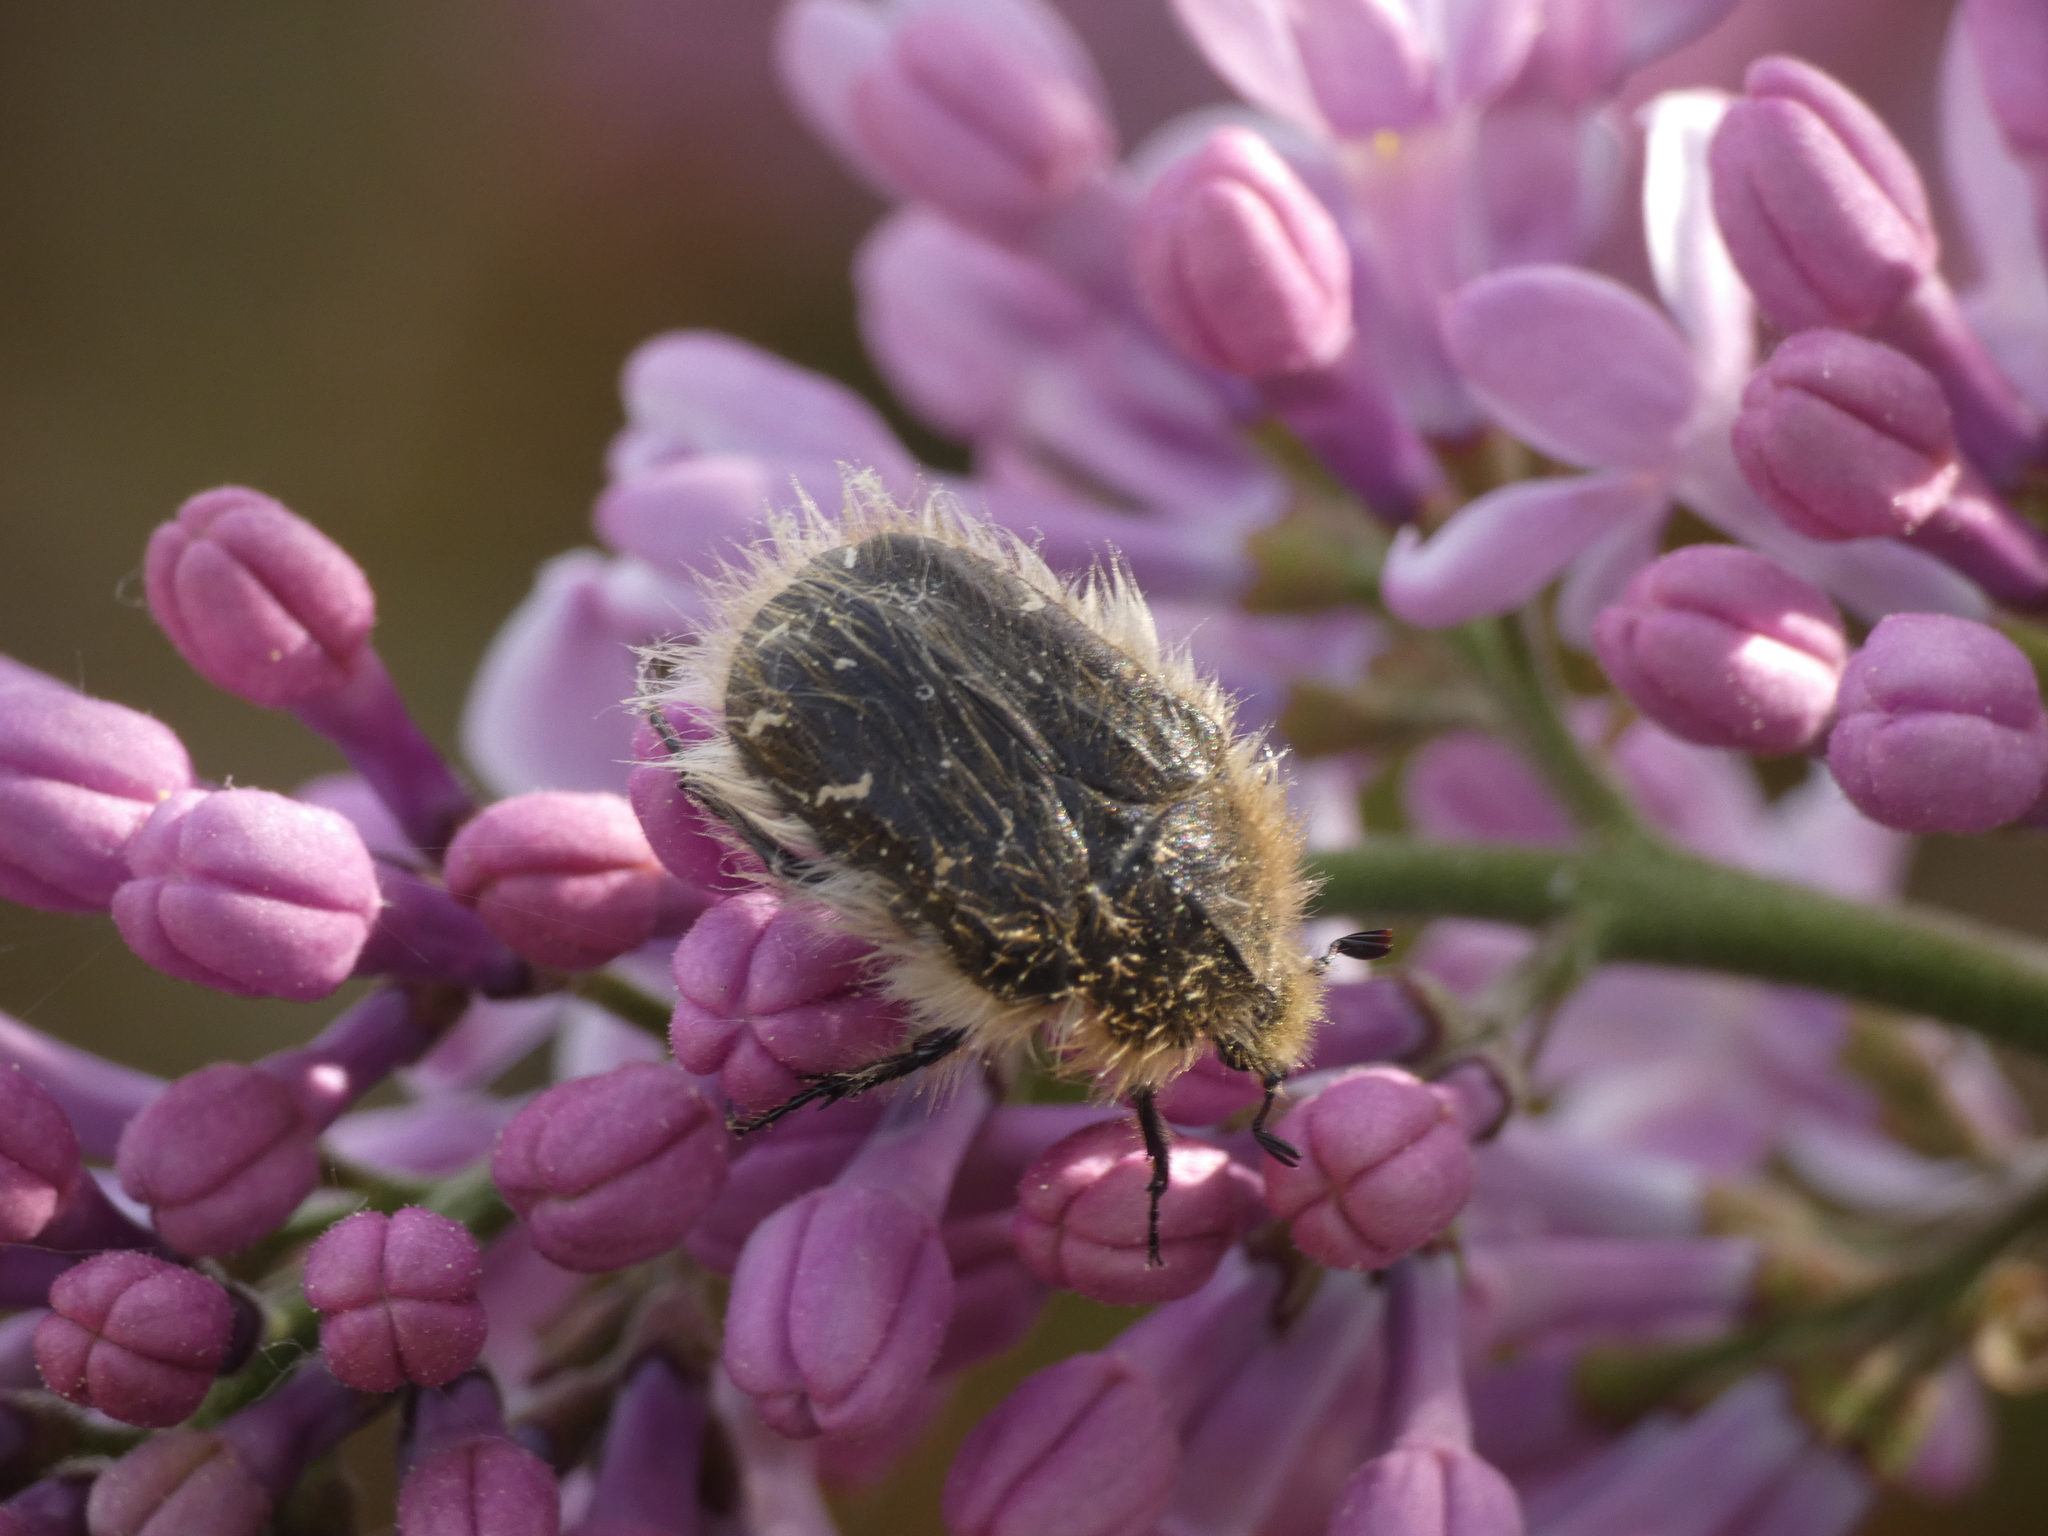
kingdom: Animalia
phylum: Arthropoda
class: Insecta
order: Coleoptera
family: Scarabaeidae
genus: Tropinota
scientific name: Tropinota hirta
